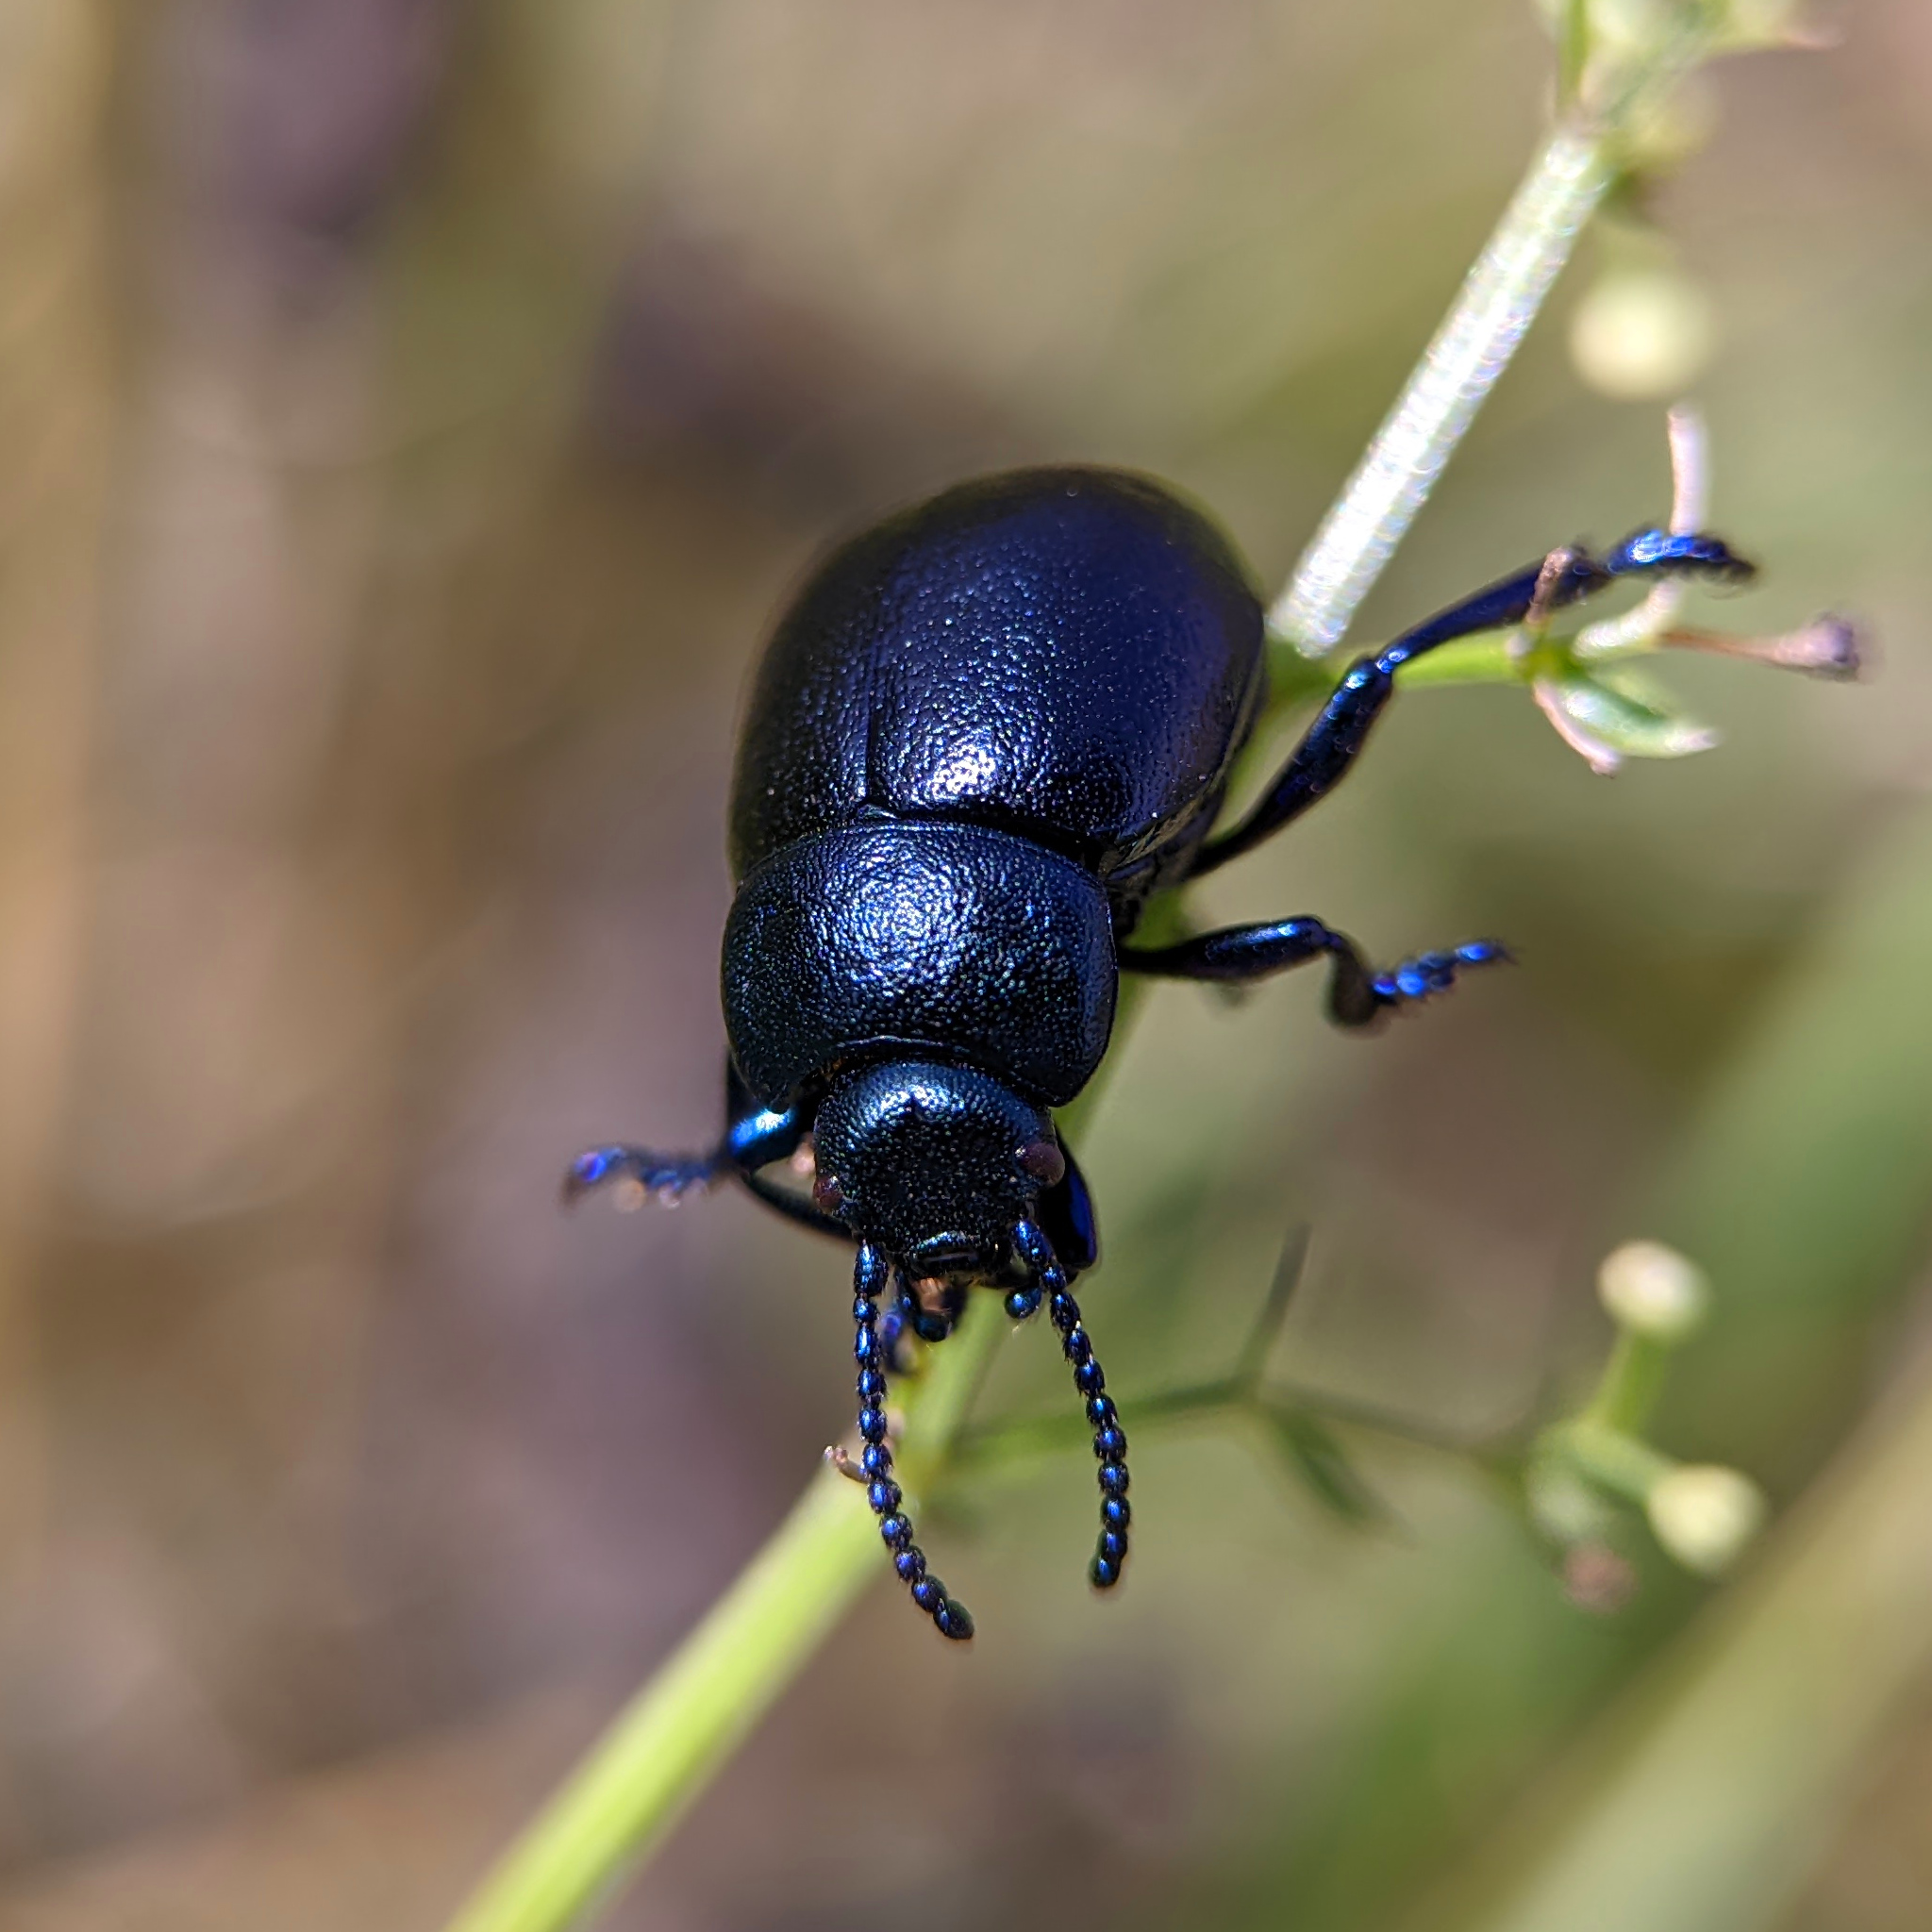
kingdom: Animalia
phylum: Arthropoda
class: Insecta
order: Coleoptera
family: Chrysomelidae
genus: Timarcha
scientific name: Timarcha goettingensis
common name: Small bloody-nosed beetle
